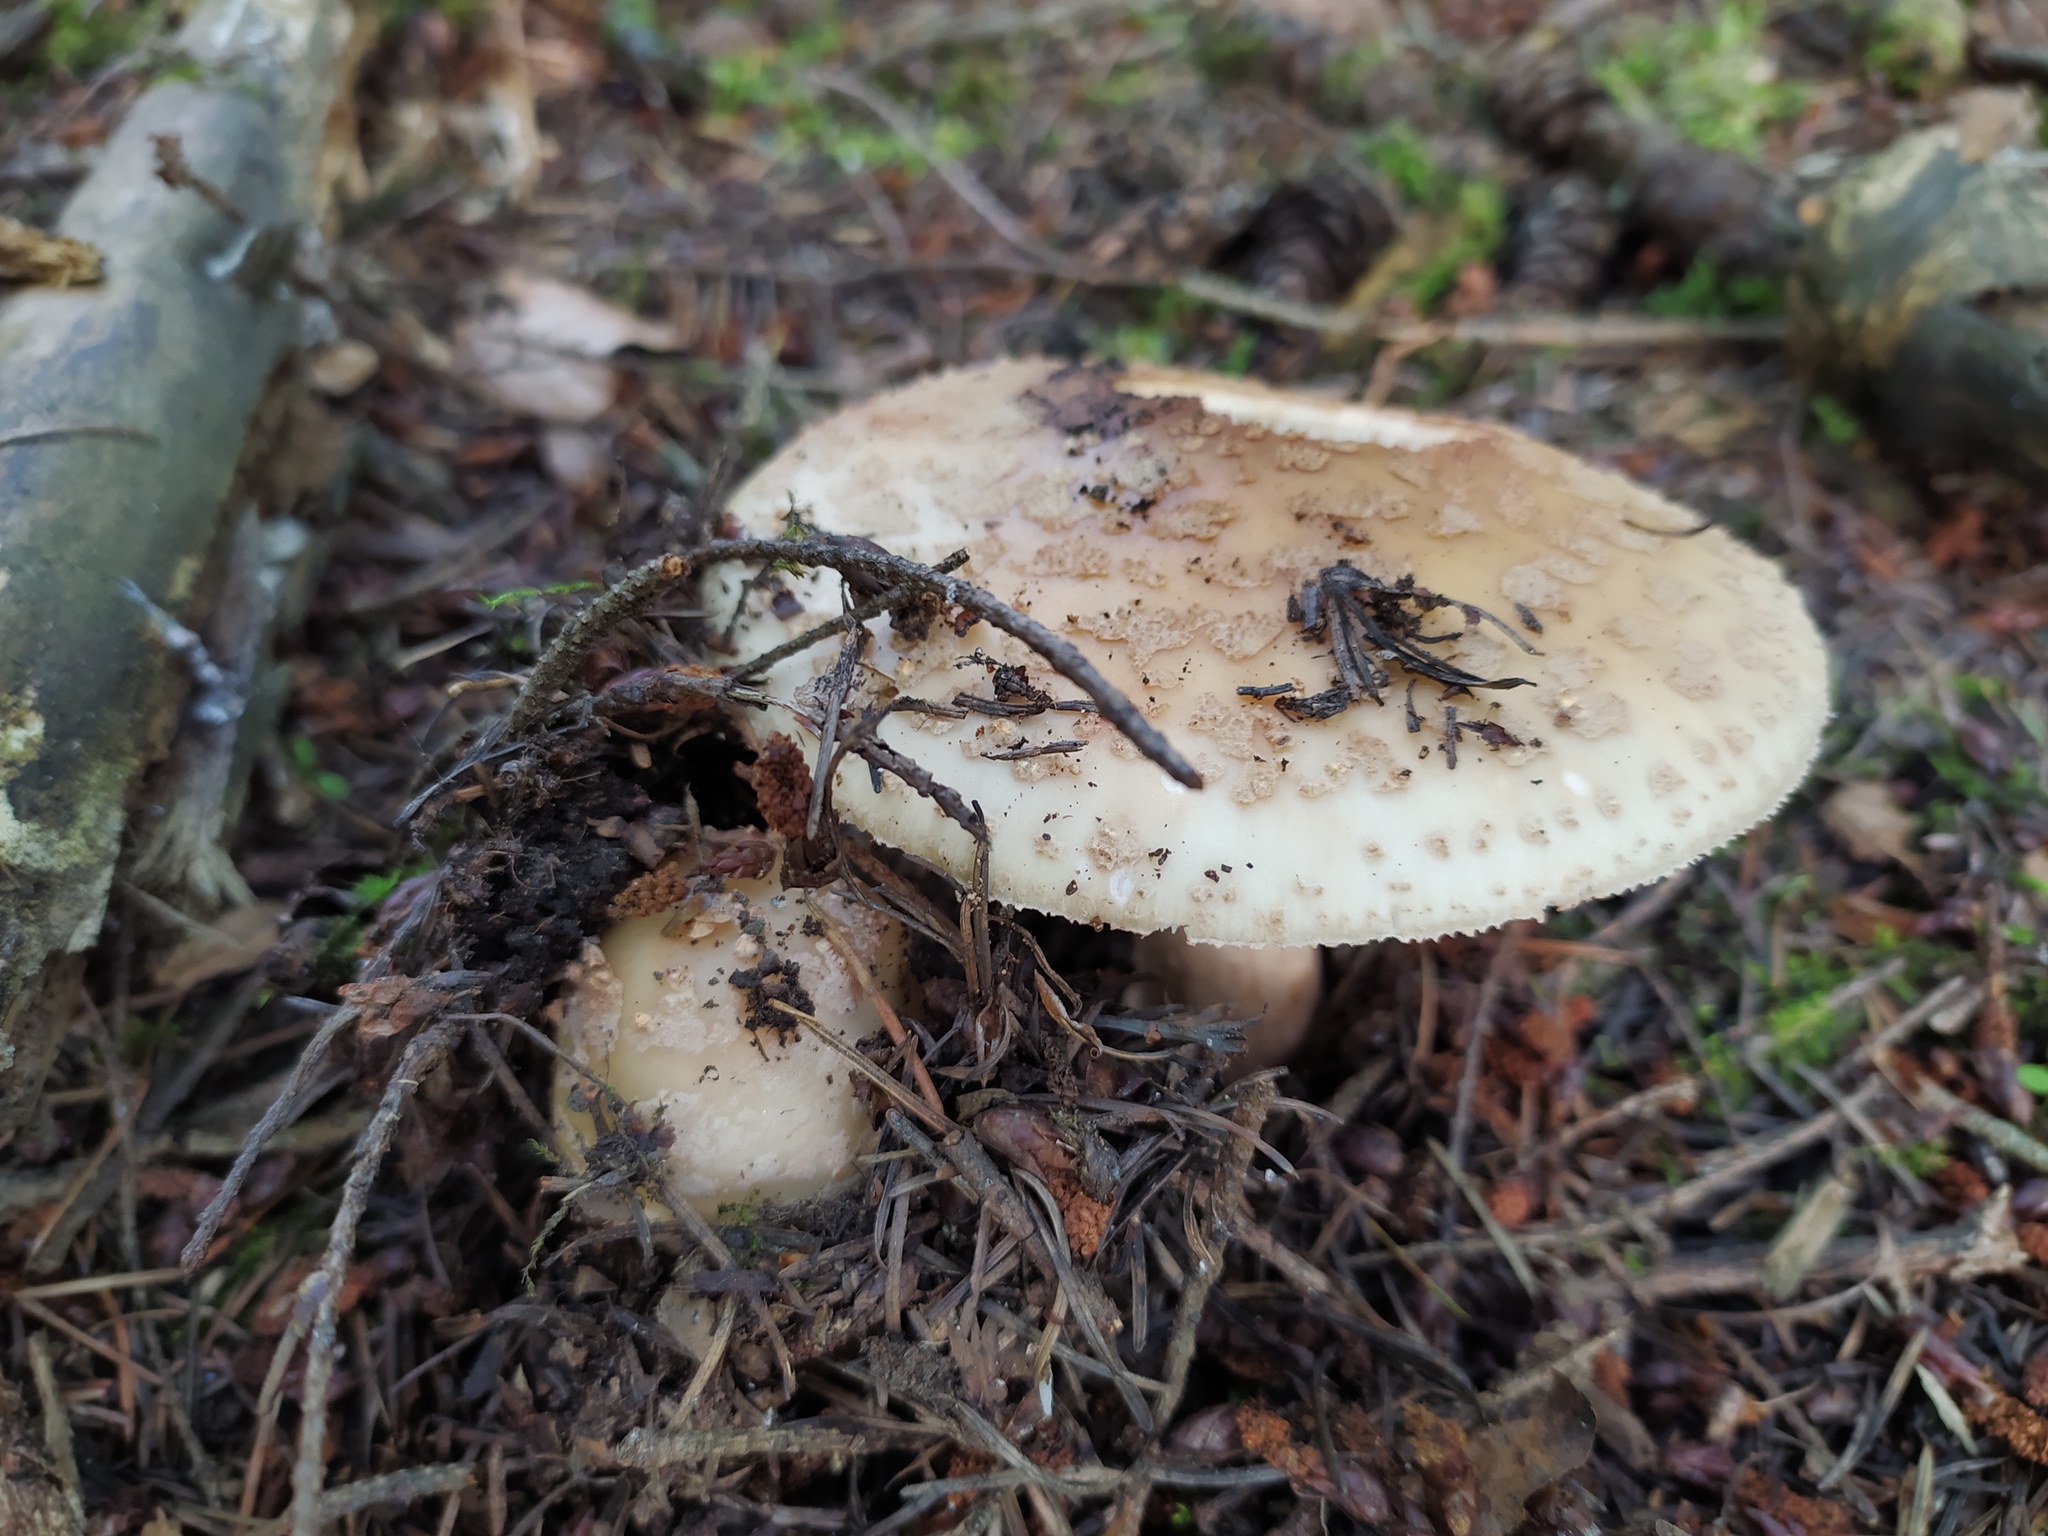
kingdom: Fungi
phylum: Basidiomycota
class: Agaricomycetes
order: Agaricales
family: Amanitaceae
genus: Amanita
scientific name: Amanita rubescens
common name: Blusher
